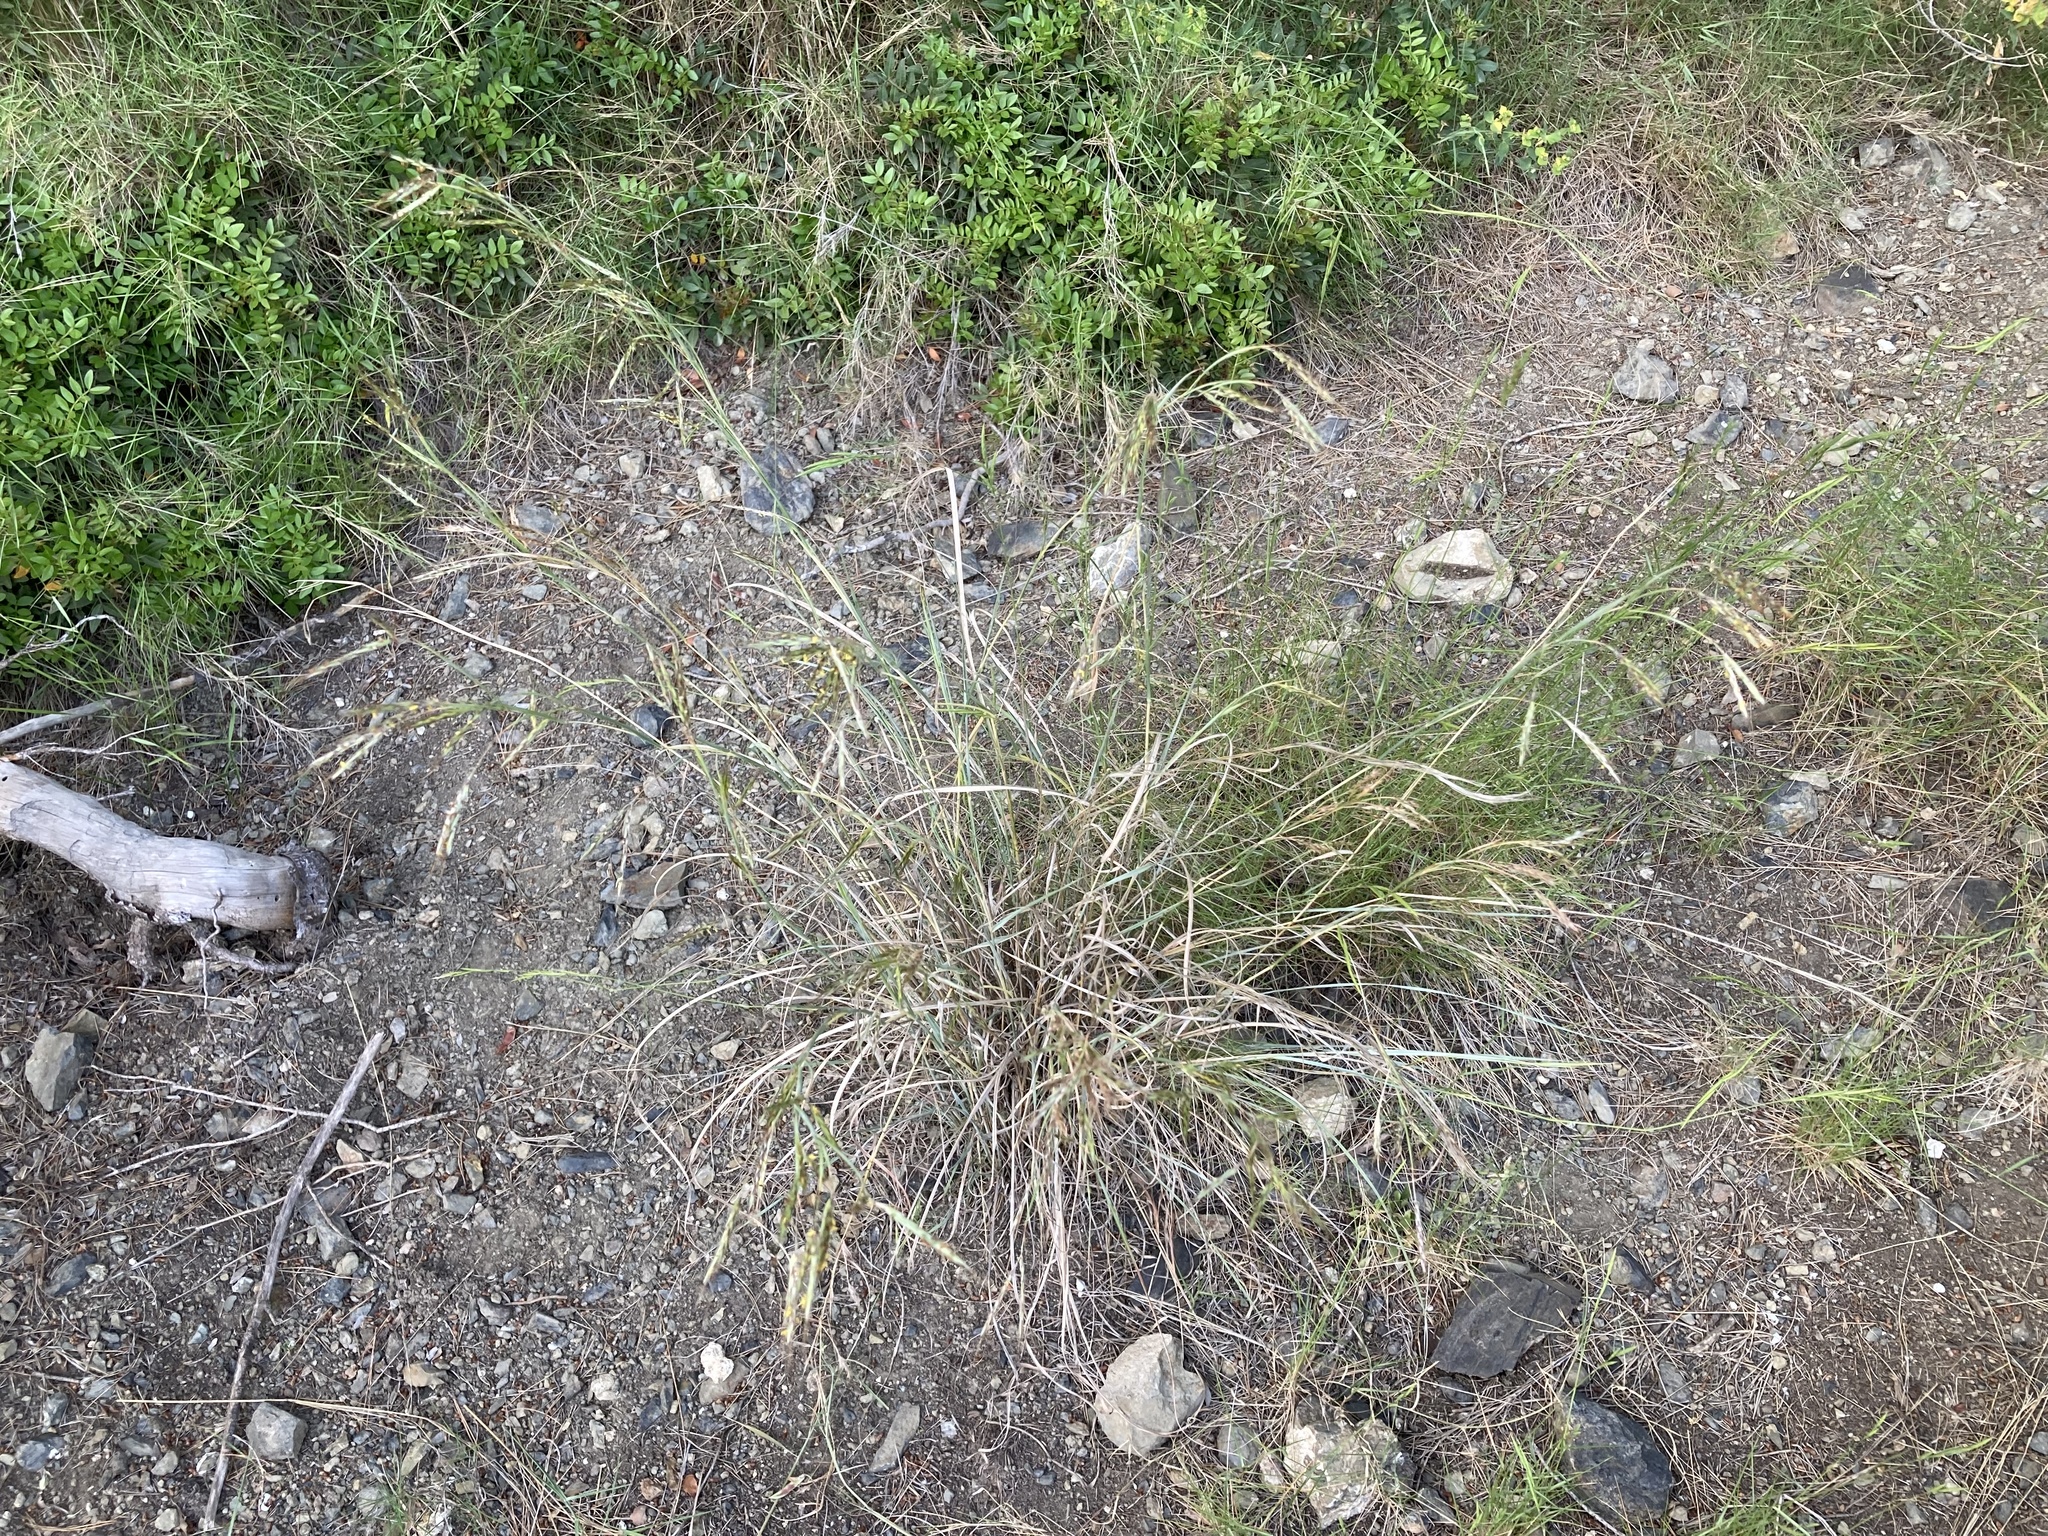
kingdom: Plantae
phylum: Tracheophyta
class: Liliopsida
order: Poales
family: Poaceae
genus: Hyparrhenia
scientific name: Hyparrhenia hirta
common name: Thatching grass
